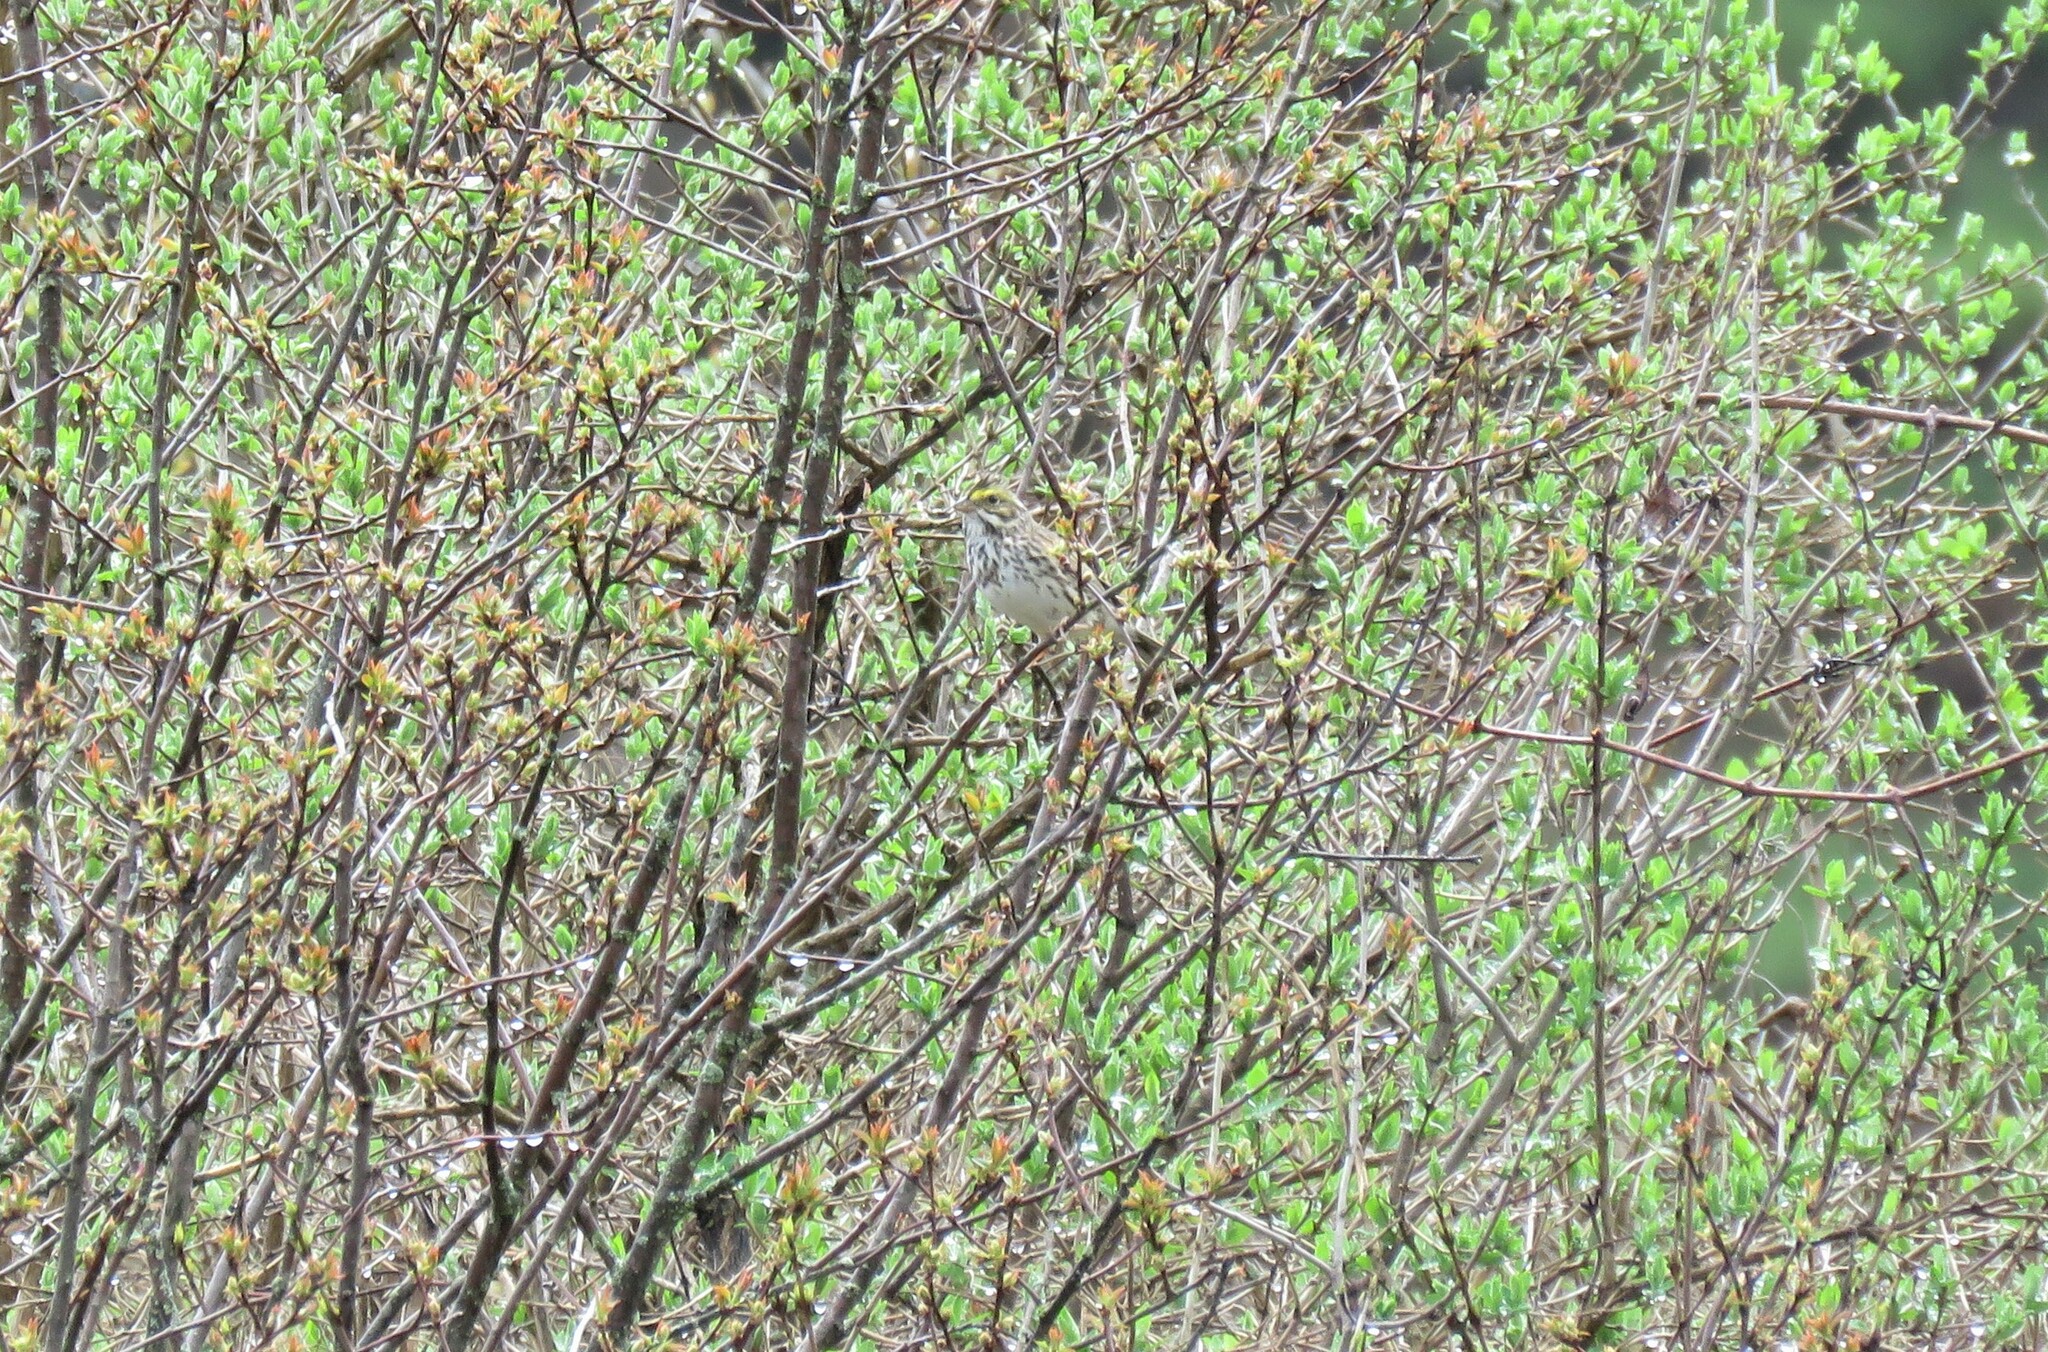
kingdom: Animalia
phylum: Chordata
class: Aves
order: Passeriformes
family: Passerellidae
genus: Passerculus
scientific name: Passerculus sandwichensis
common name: Savannah sparrow
